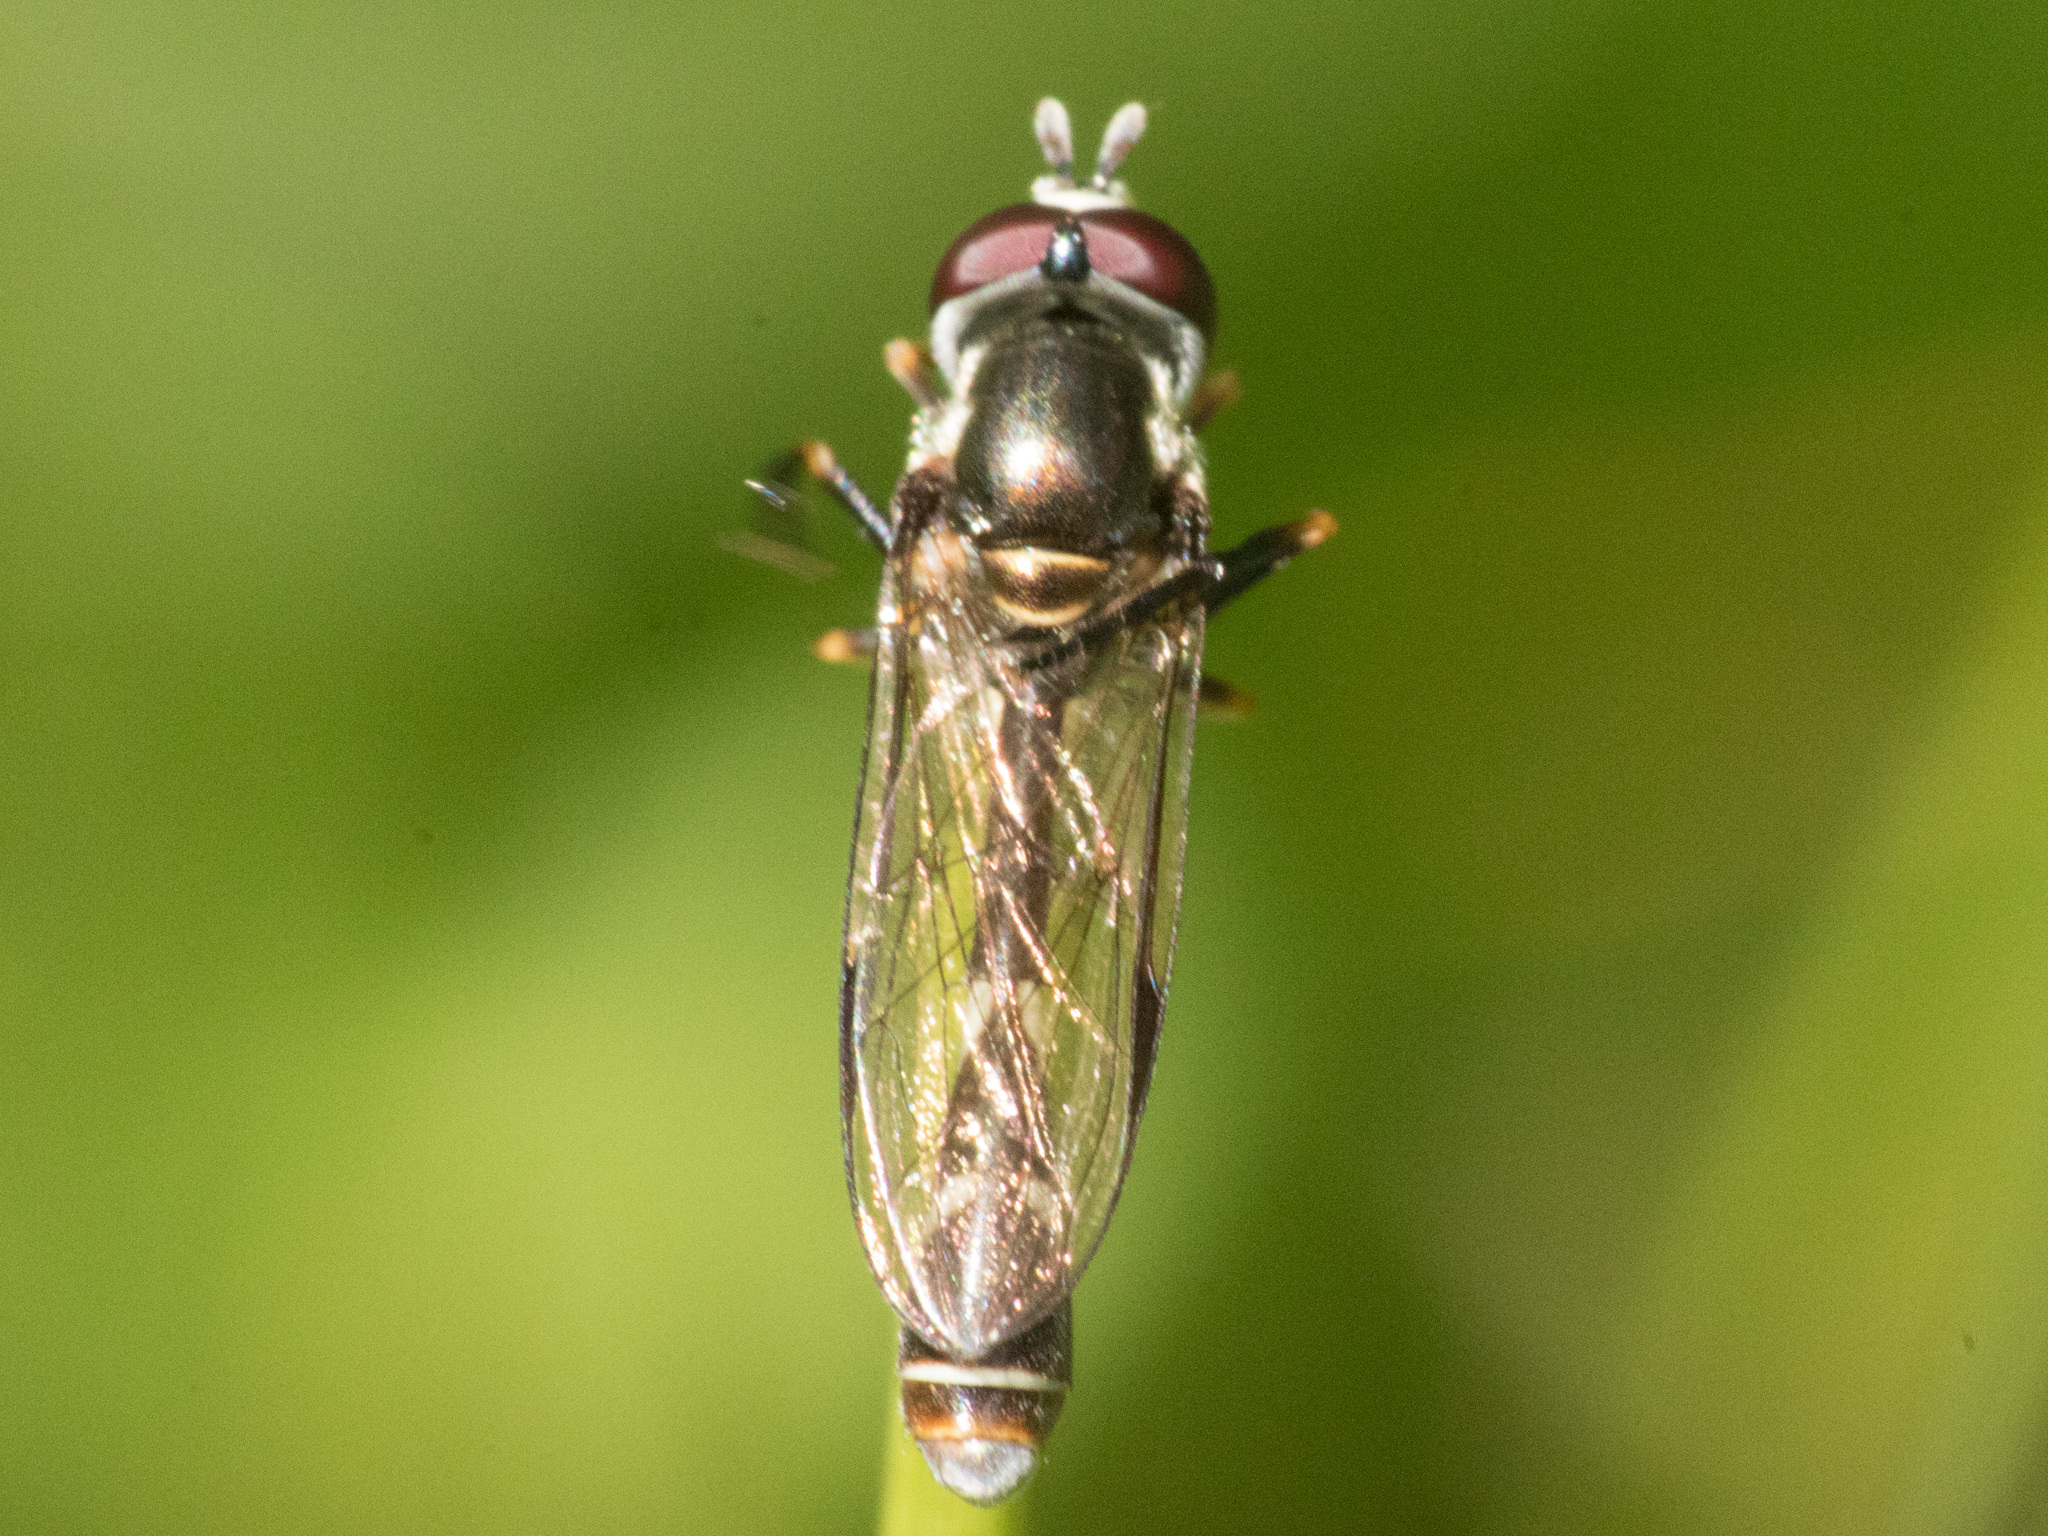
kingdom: Animalia
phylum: Arthropoda
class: Insecta
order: Diptera
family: Syrphidae
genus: Dioprosopa
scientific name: Dioprosopa clavatus
